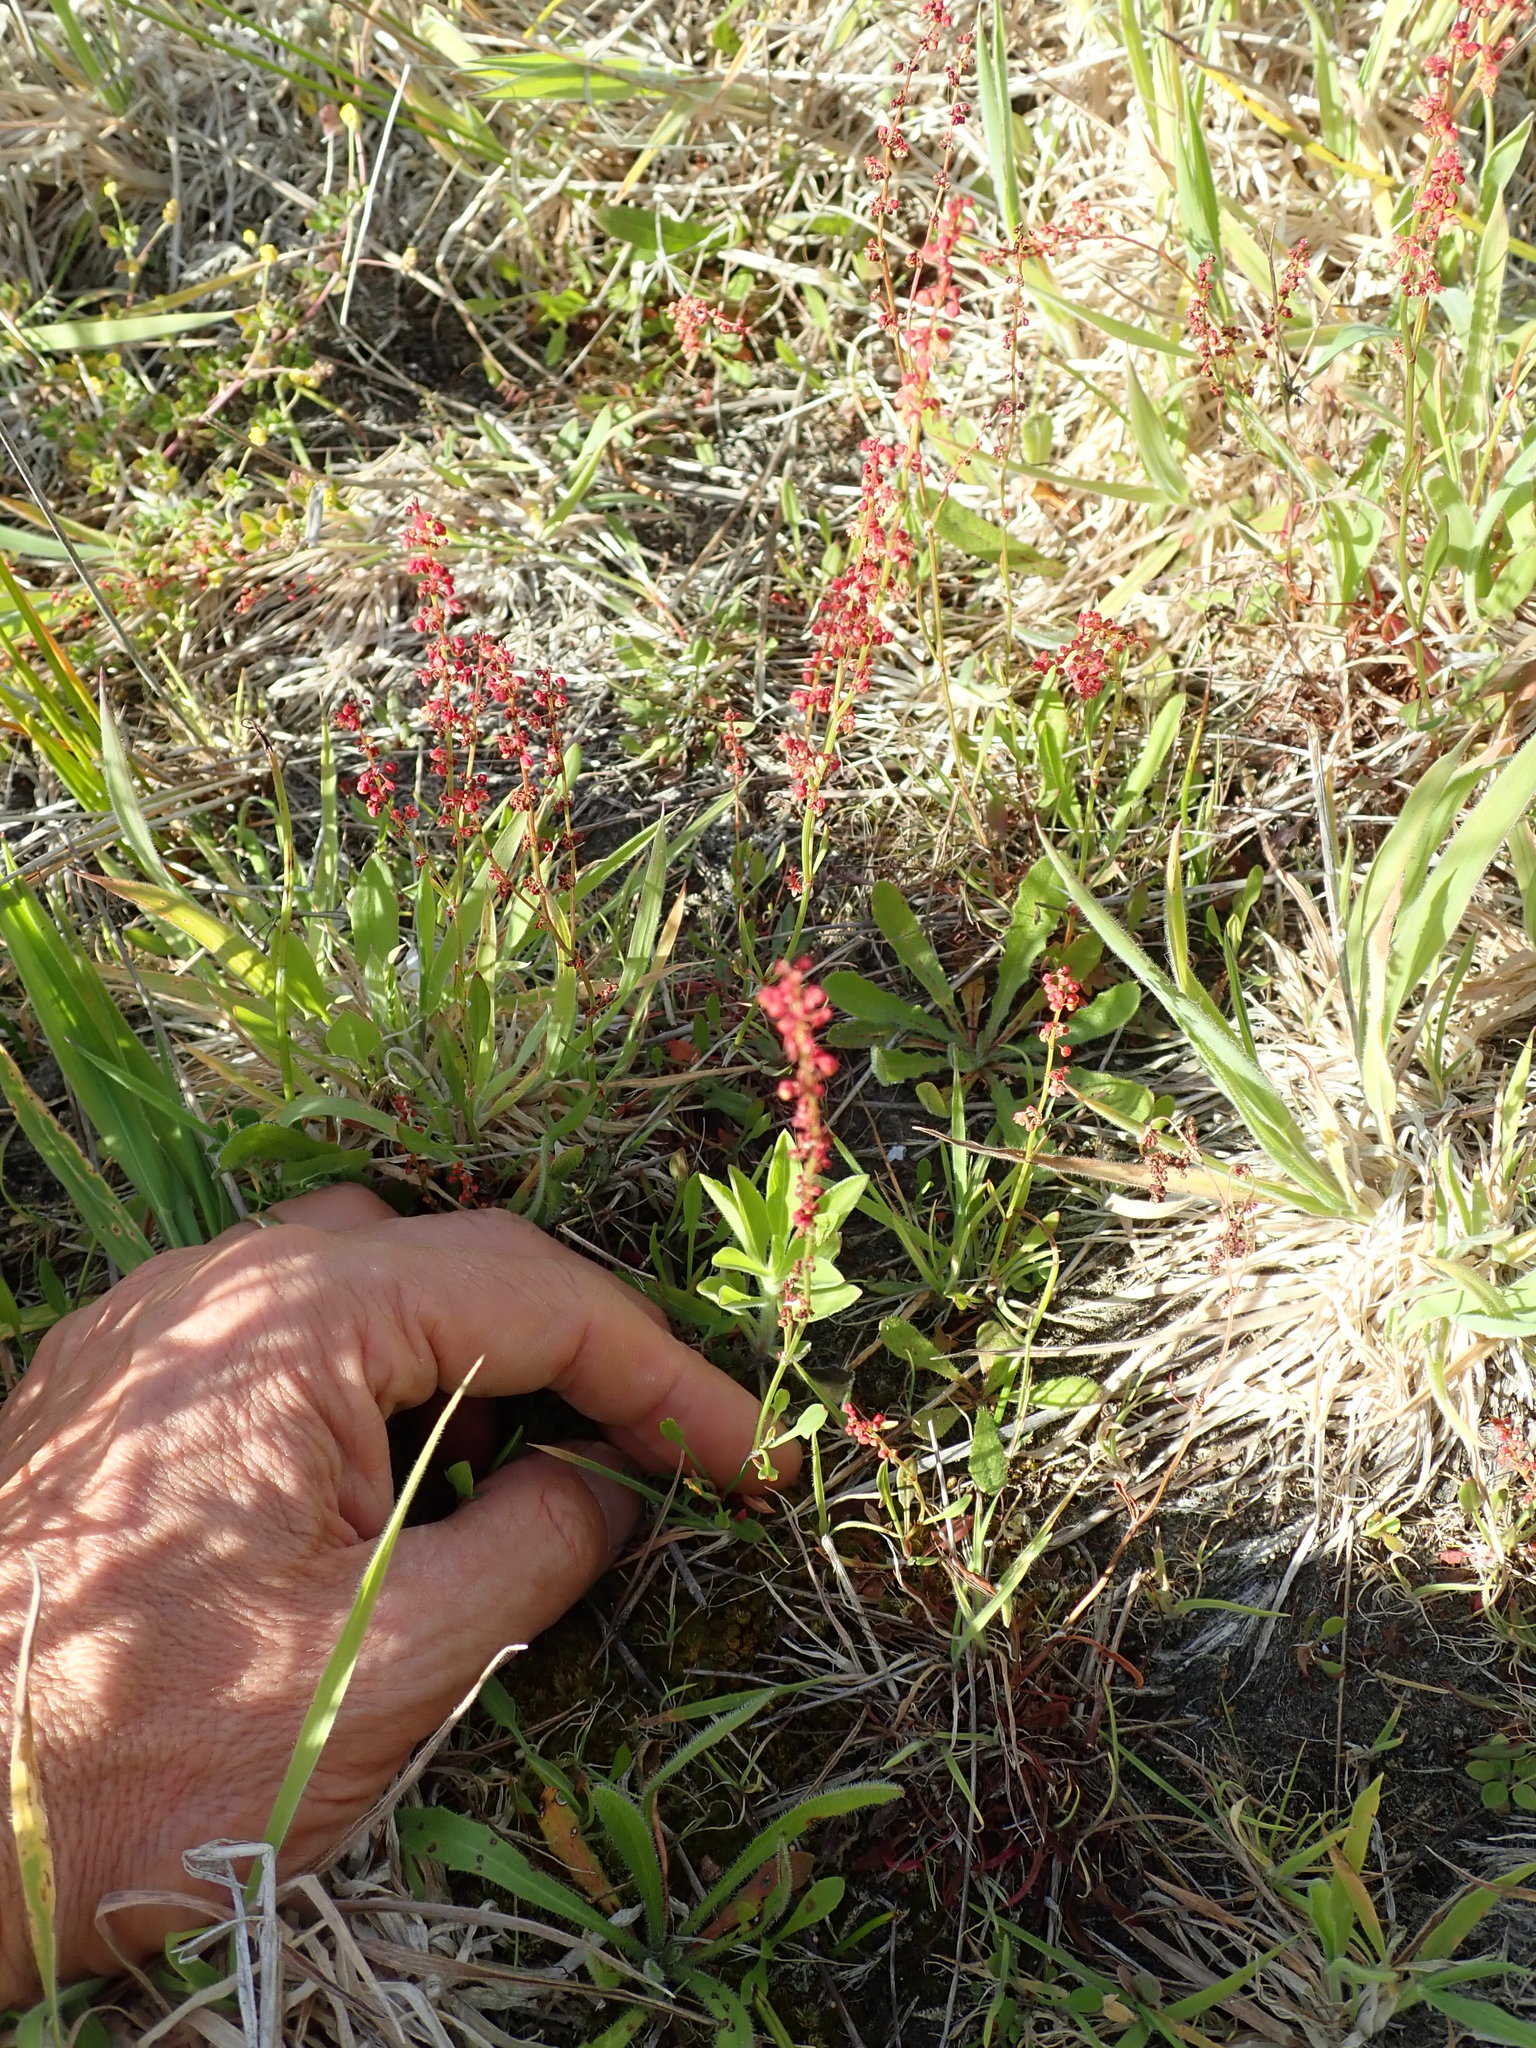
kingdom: Plantae
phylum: Tracheophyta
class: Magnoliopsida
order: Caryophyllales
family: Polygonaceae
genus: Rumex
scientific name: Rumex acetosella
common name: Common sheep sorrel
